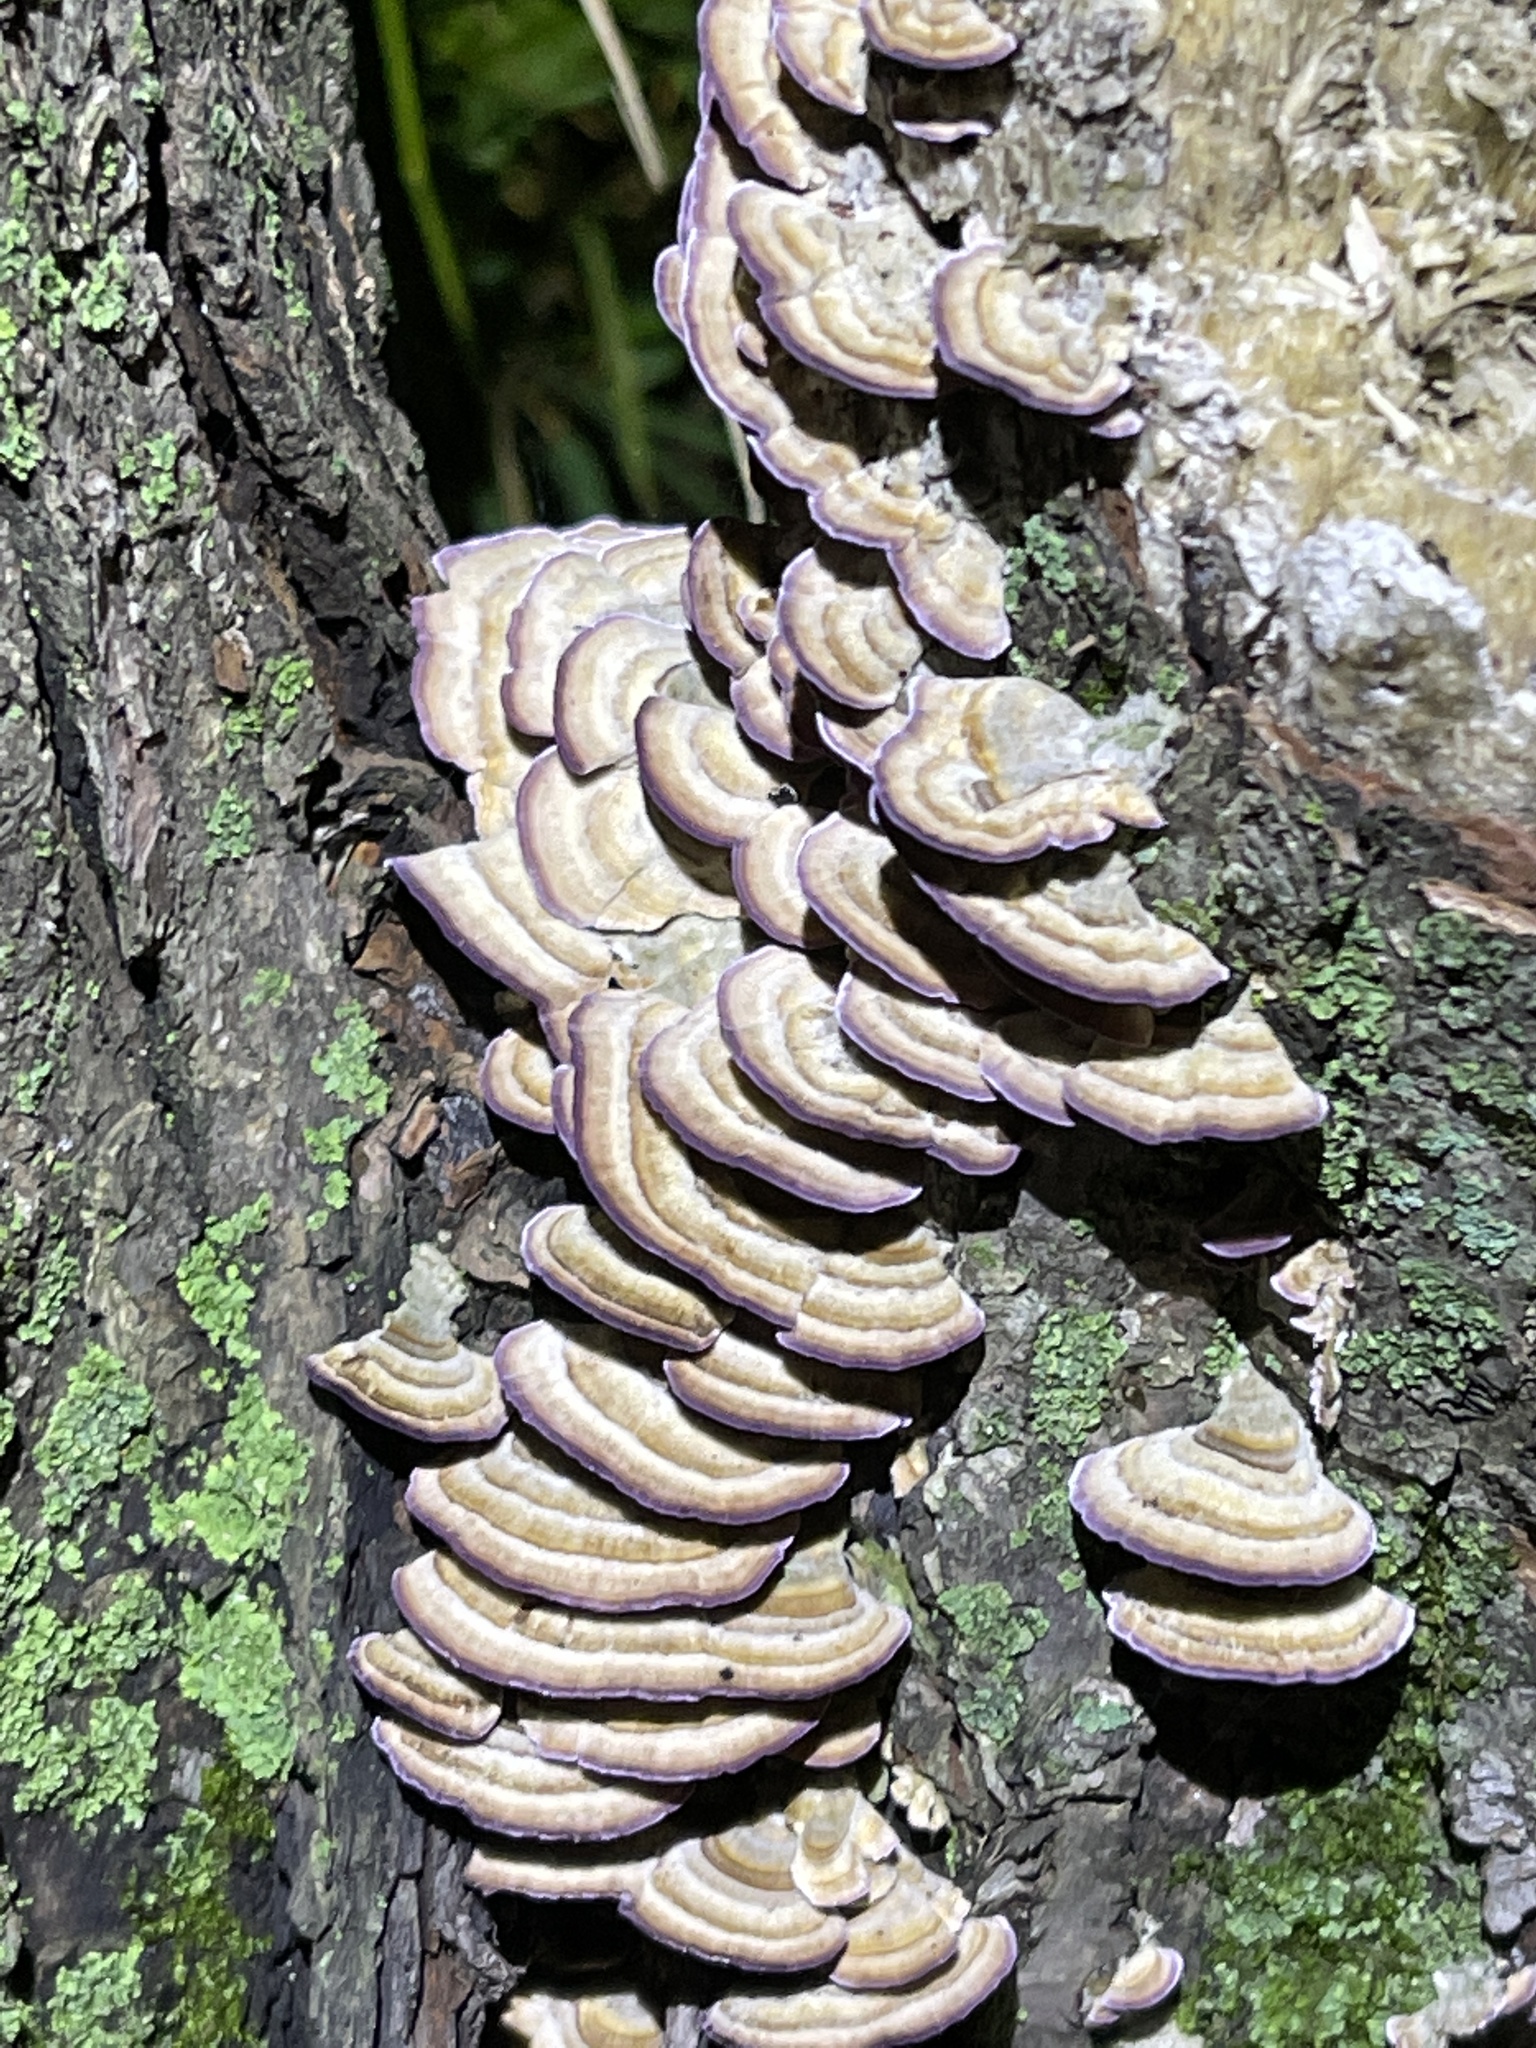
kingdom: Fungi
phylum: Basidiomycota
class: Agaricomycetes
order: Hymenochaetales
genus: Trichaptum
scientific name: Trichaptum biforme
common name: Violet-toothed polypore
